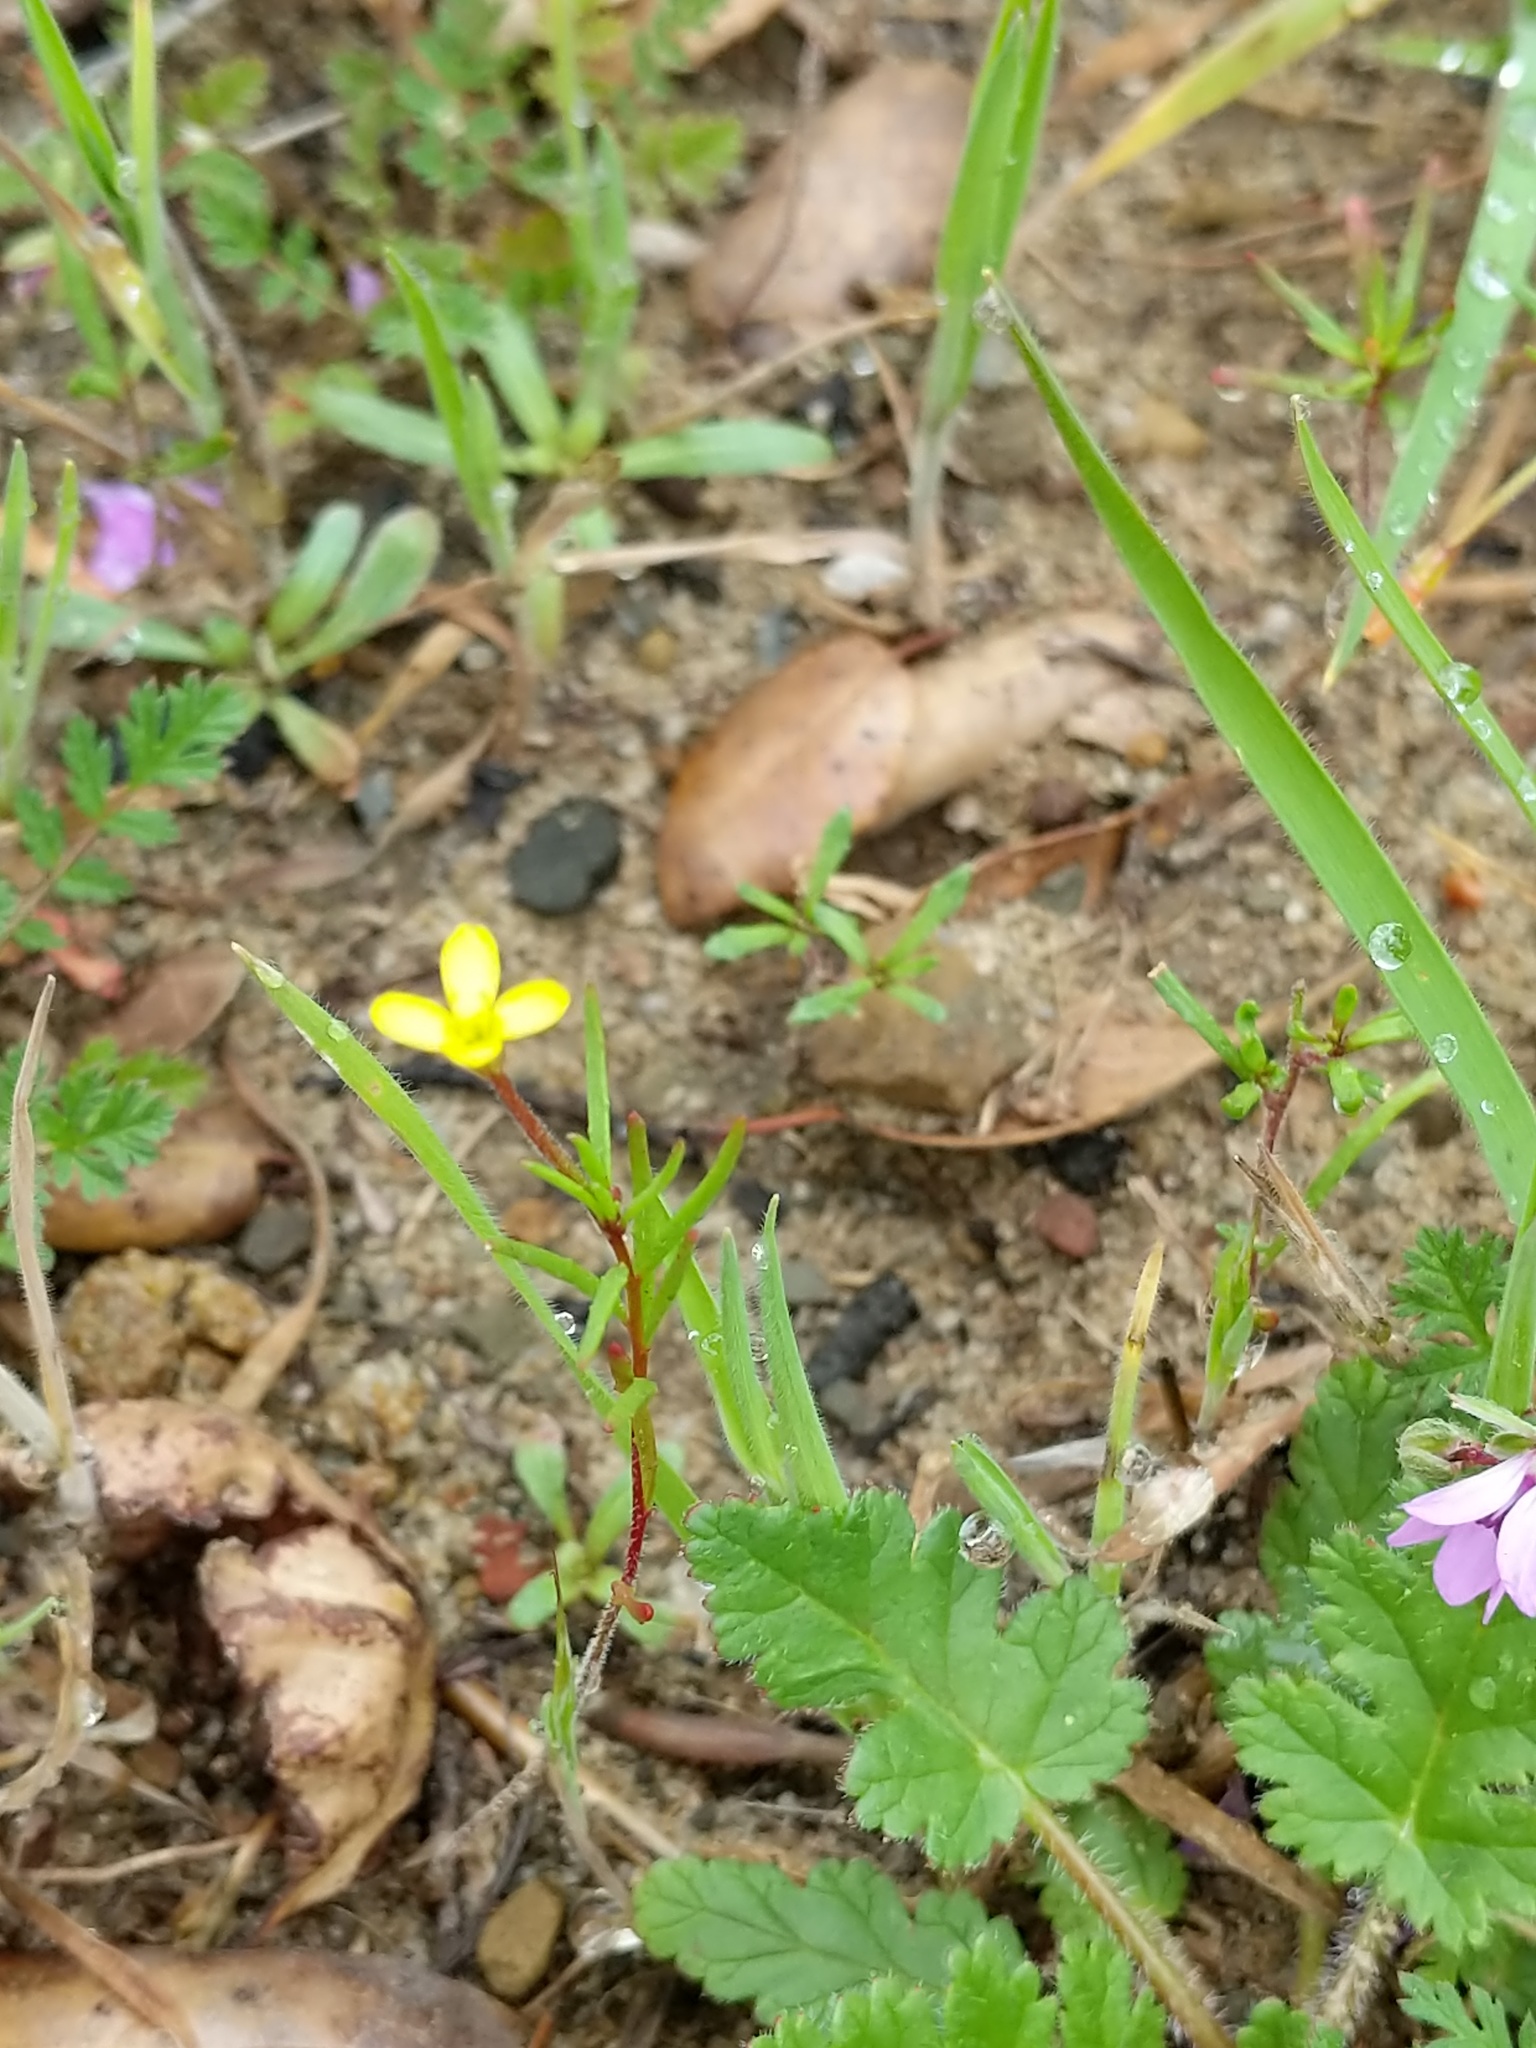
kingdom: Plantae
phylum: Tracheophyta
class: Magnoliopsida
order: Myrtales
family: Onagraceae
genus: Camissonia
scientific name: Camissonia strigulosa
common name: Contorted-primrose
